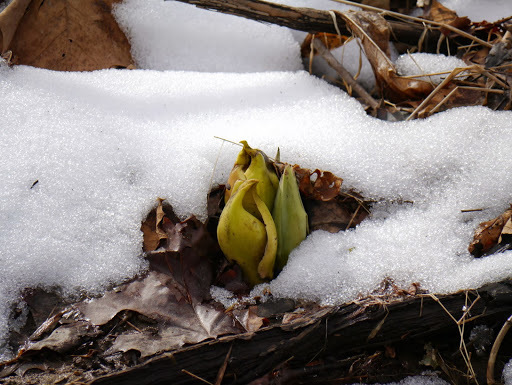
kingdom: Plantae
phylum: Tracheophyta
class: Liliopsida
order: Alismatales
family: Araceae
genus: Symplocarpus
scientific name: Symplocarpus foetidus
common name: Eastern skunk cabbage
